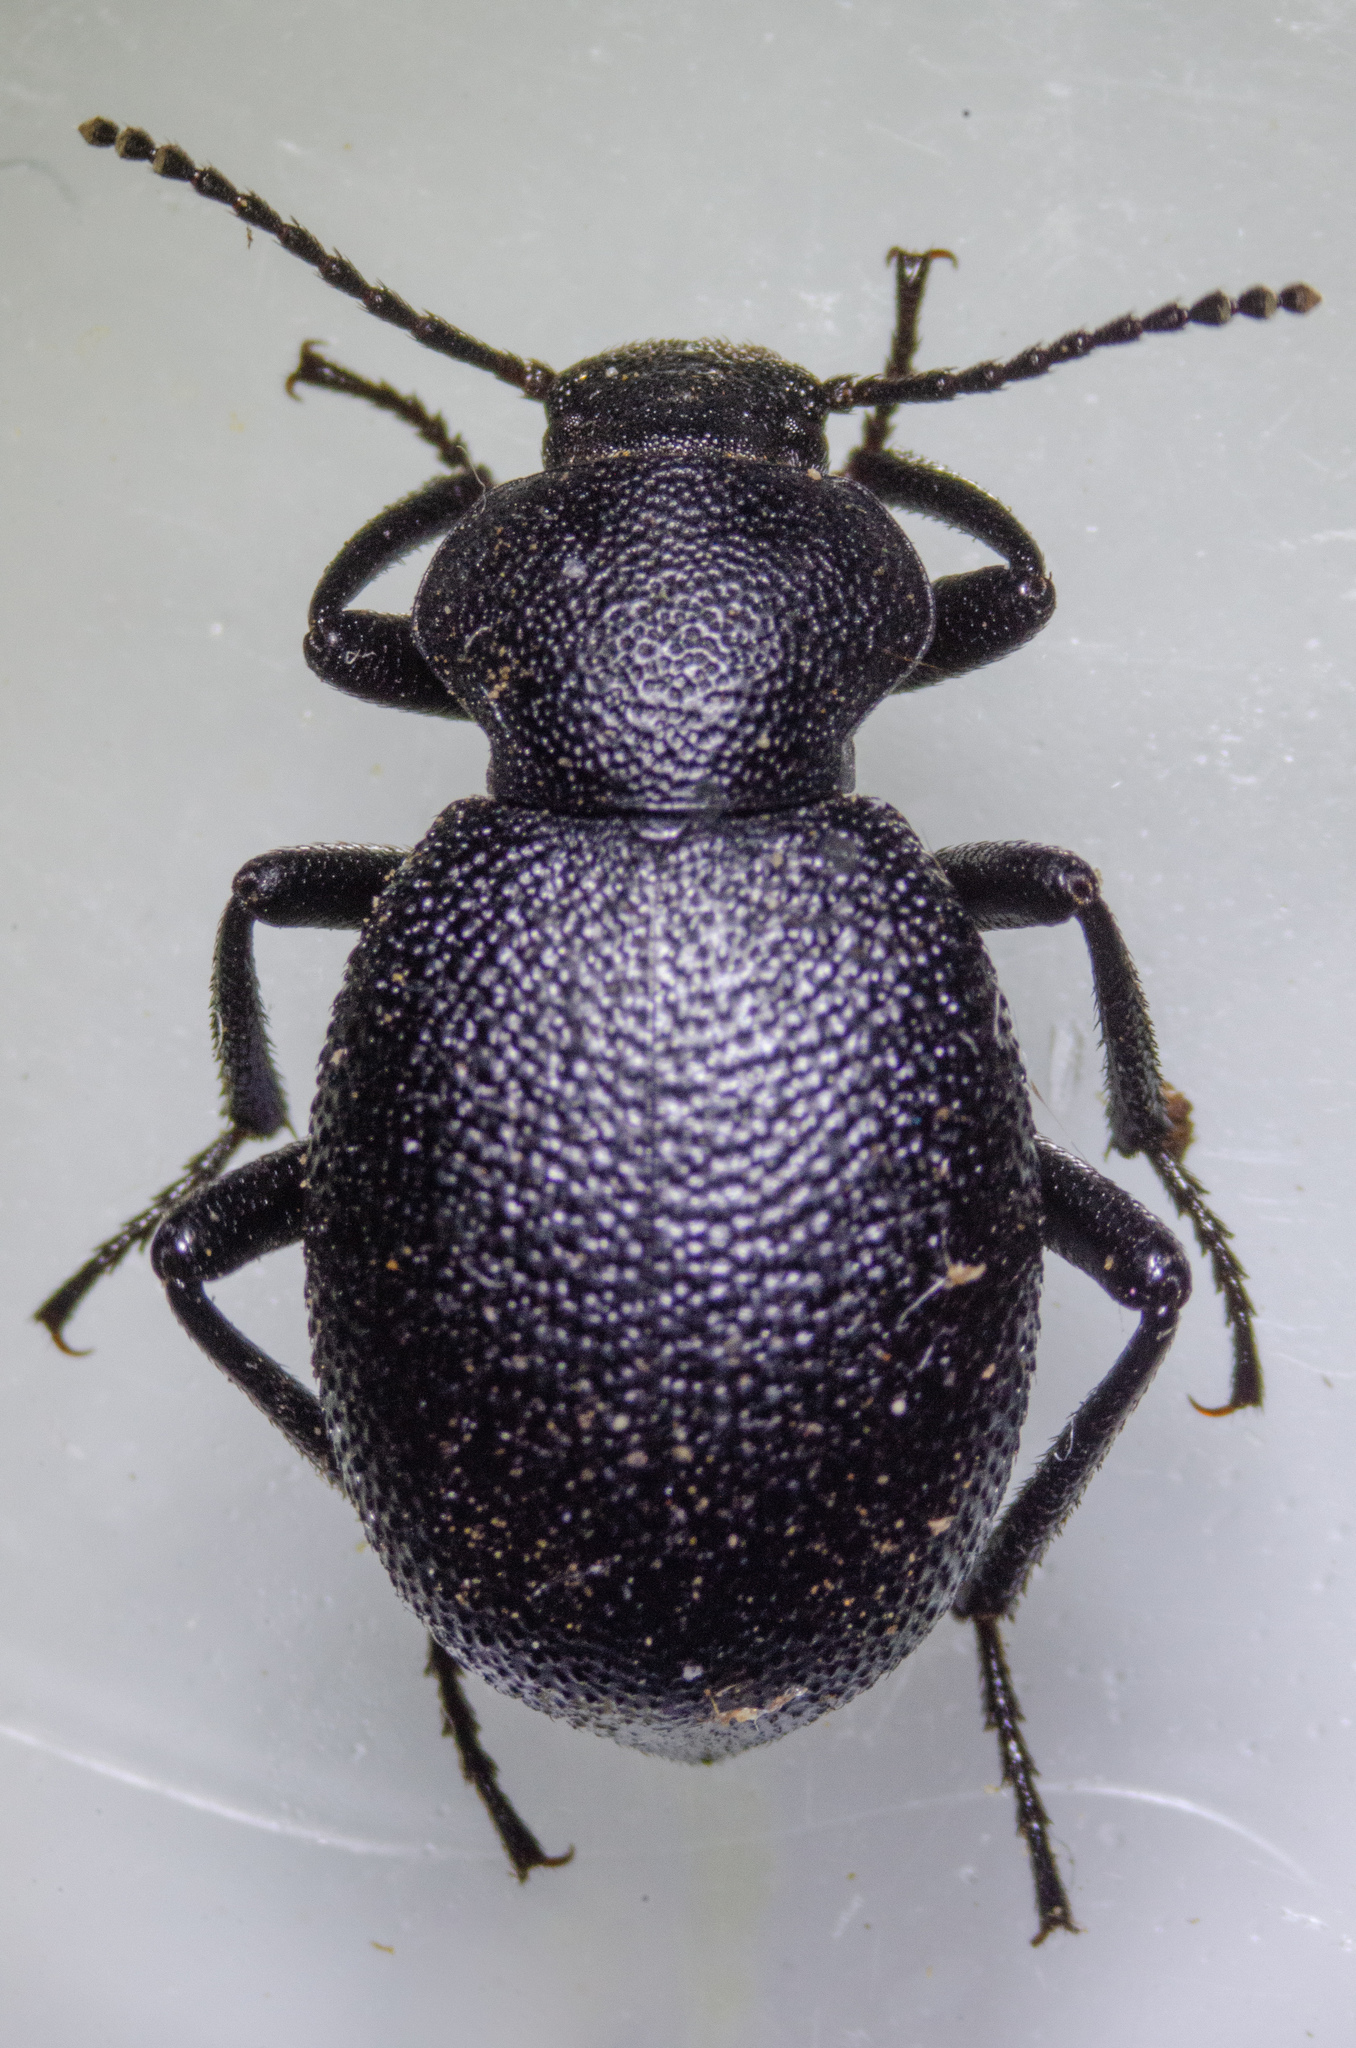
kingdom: Animalia
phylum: Arthropoda
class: Insecta
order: Coleoptera
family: Tenebrionidae
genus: Eleodes
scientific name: Eleodes cordata
